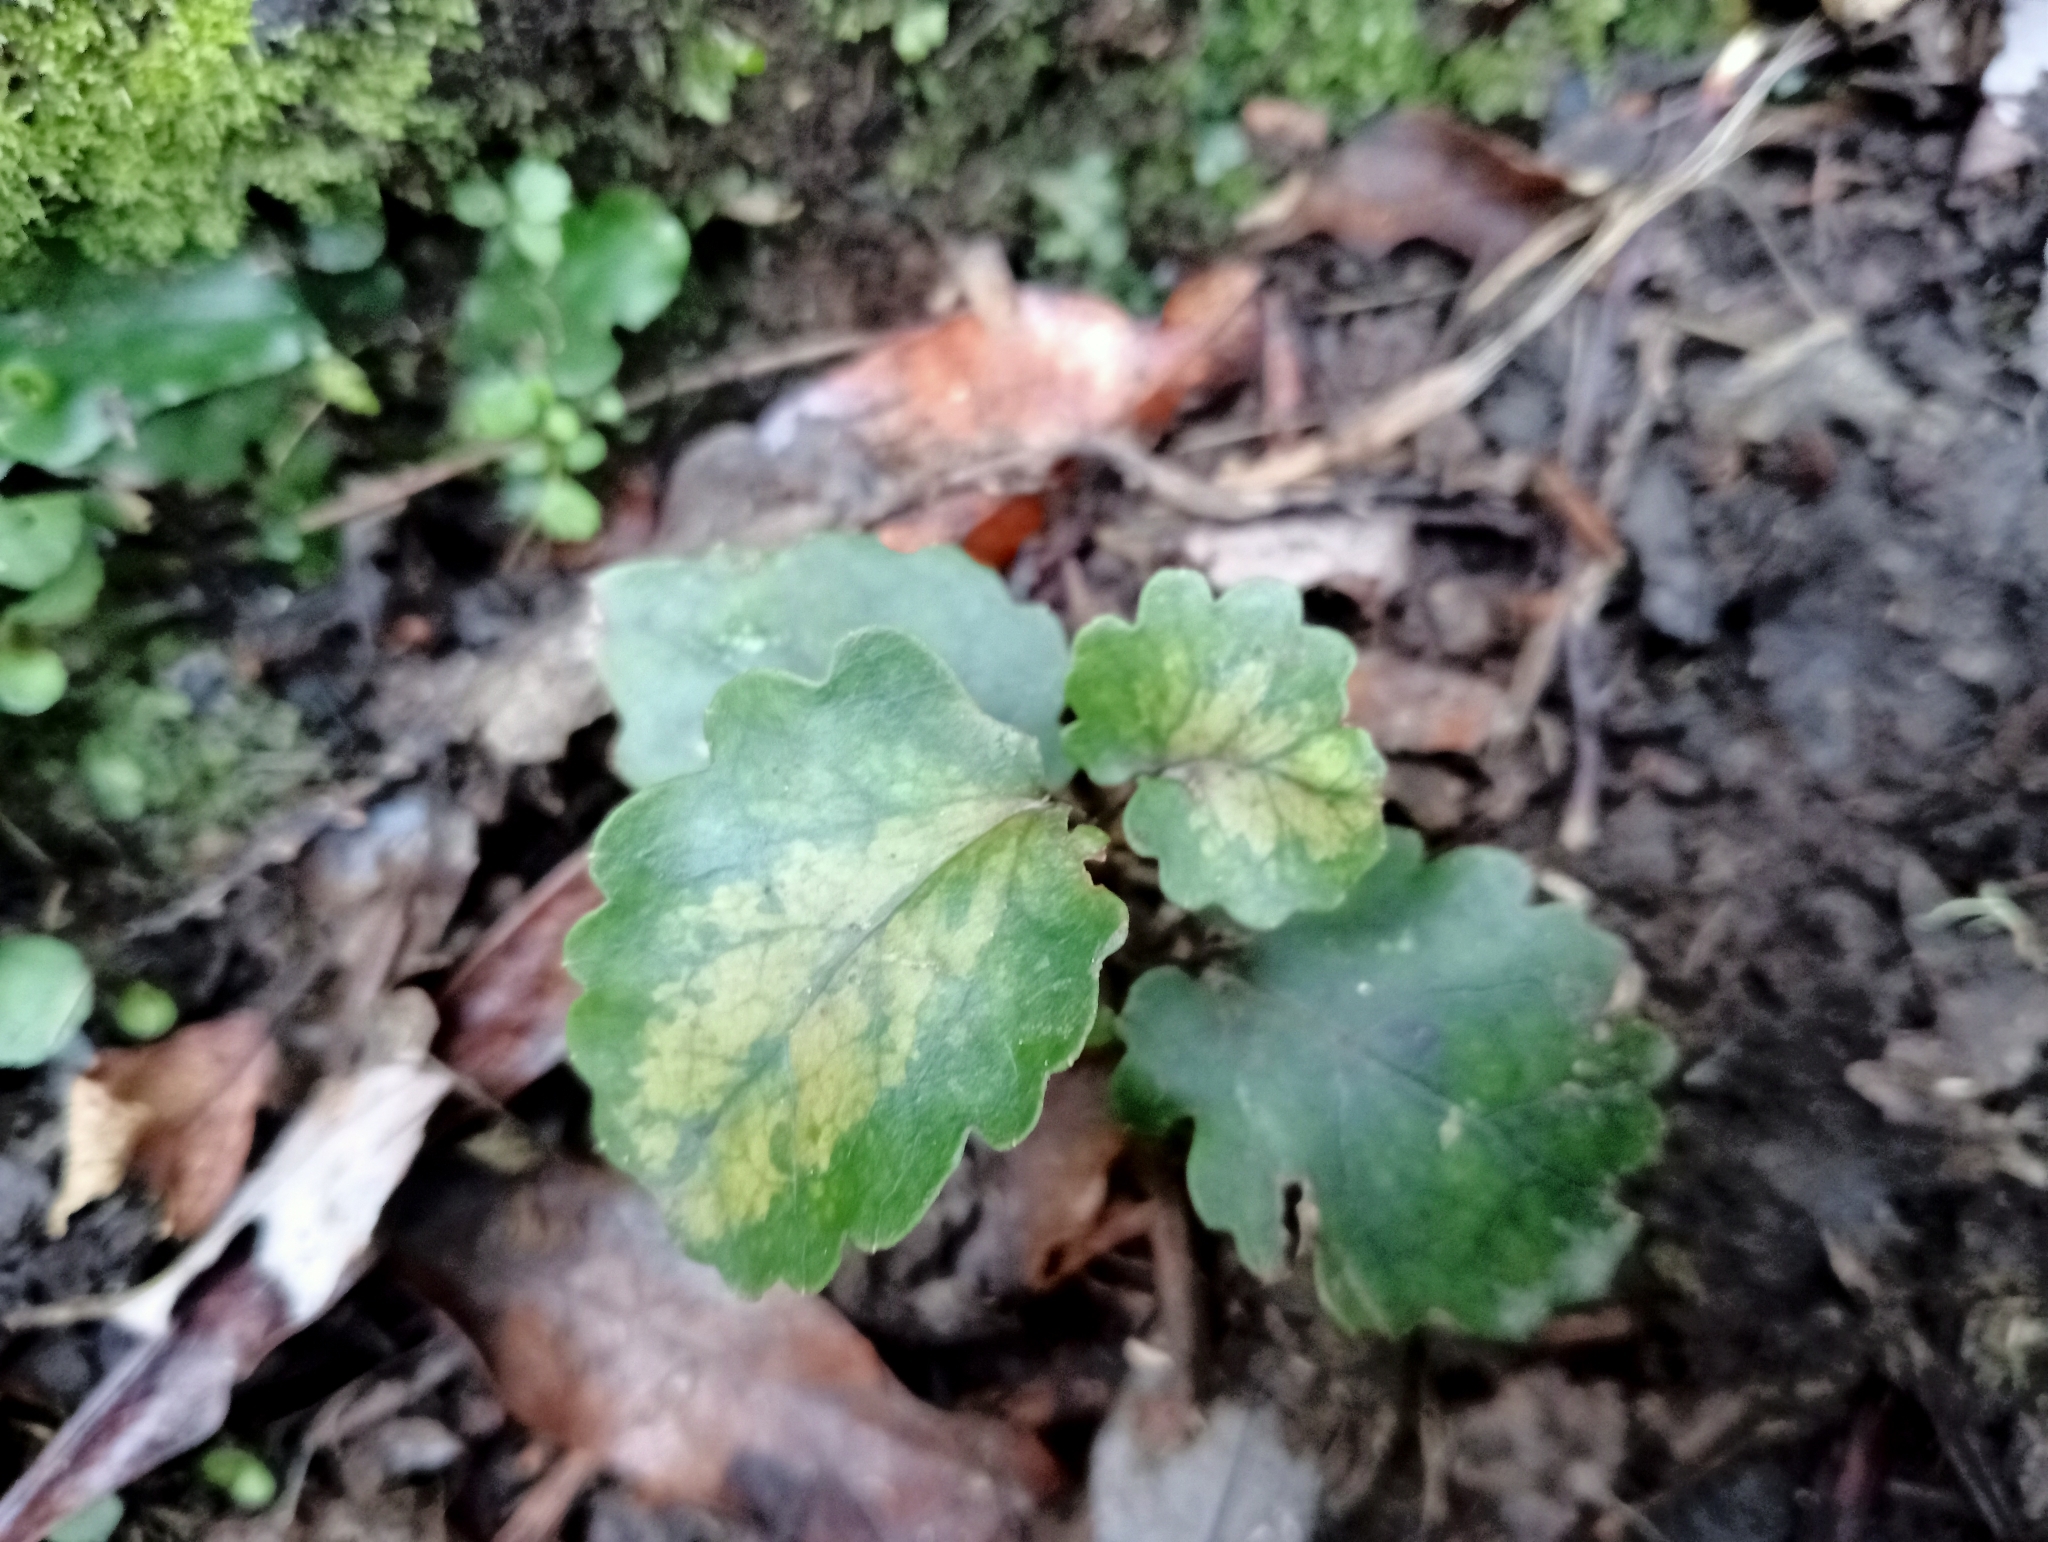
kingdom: Plantae
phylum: Tracheophyta
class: Magnoliopsida
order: Ranunculales
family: Ranunculaceae
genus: Clematis
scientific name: Clematis paniculata
